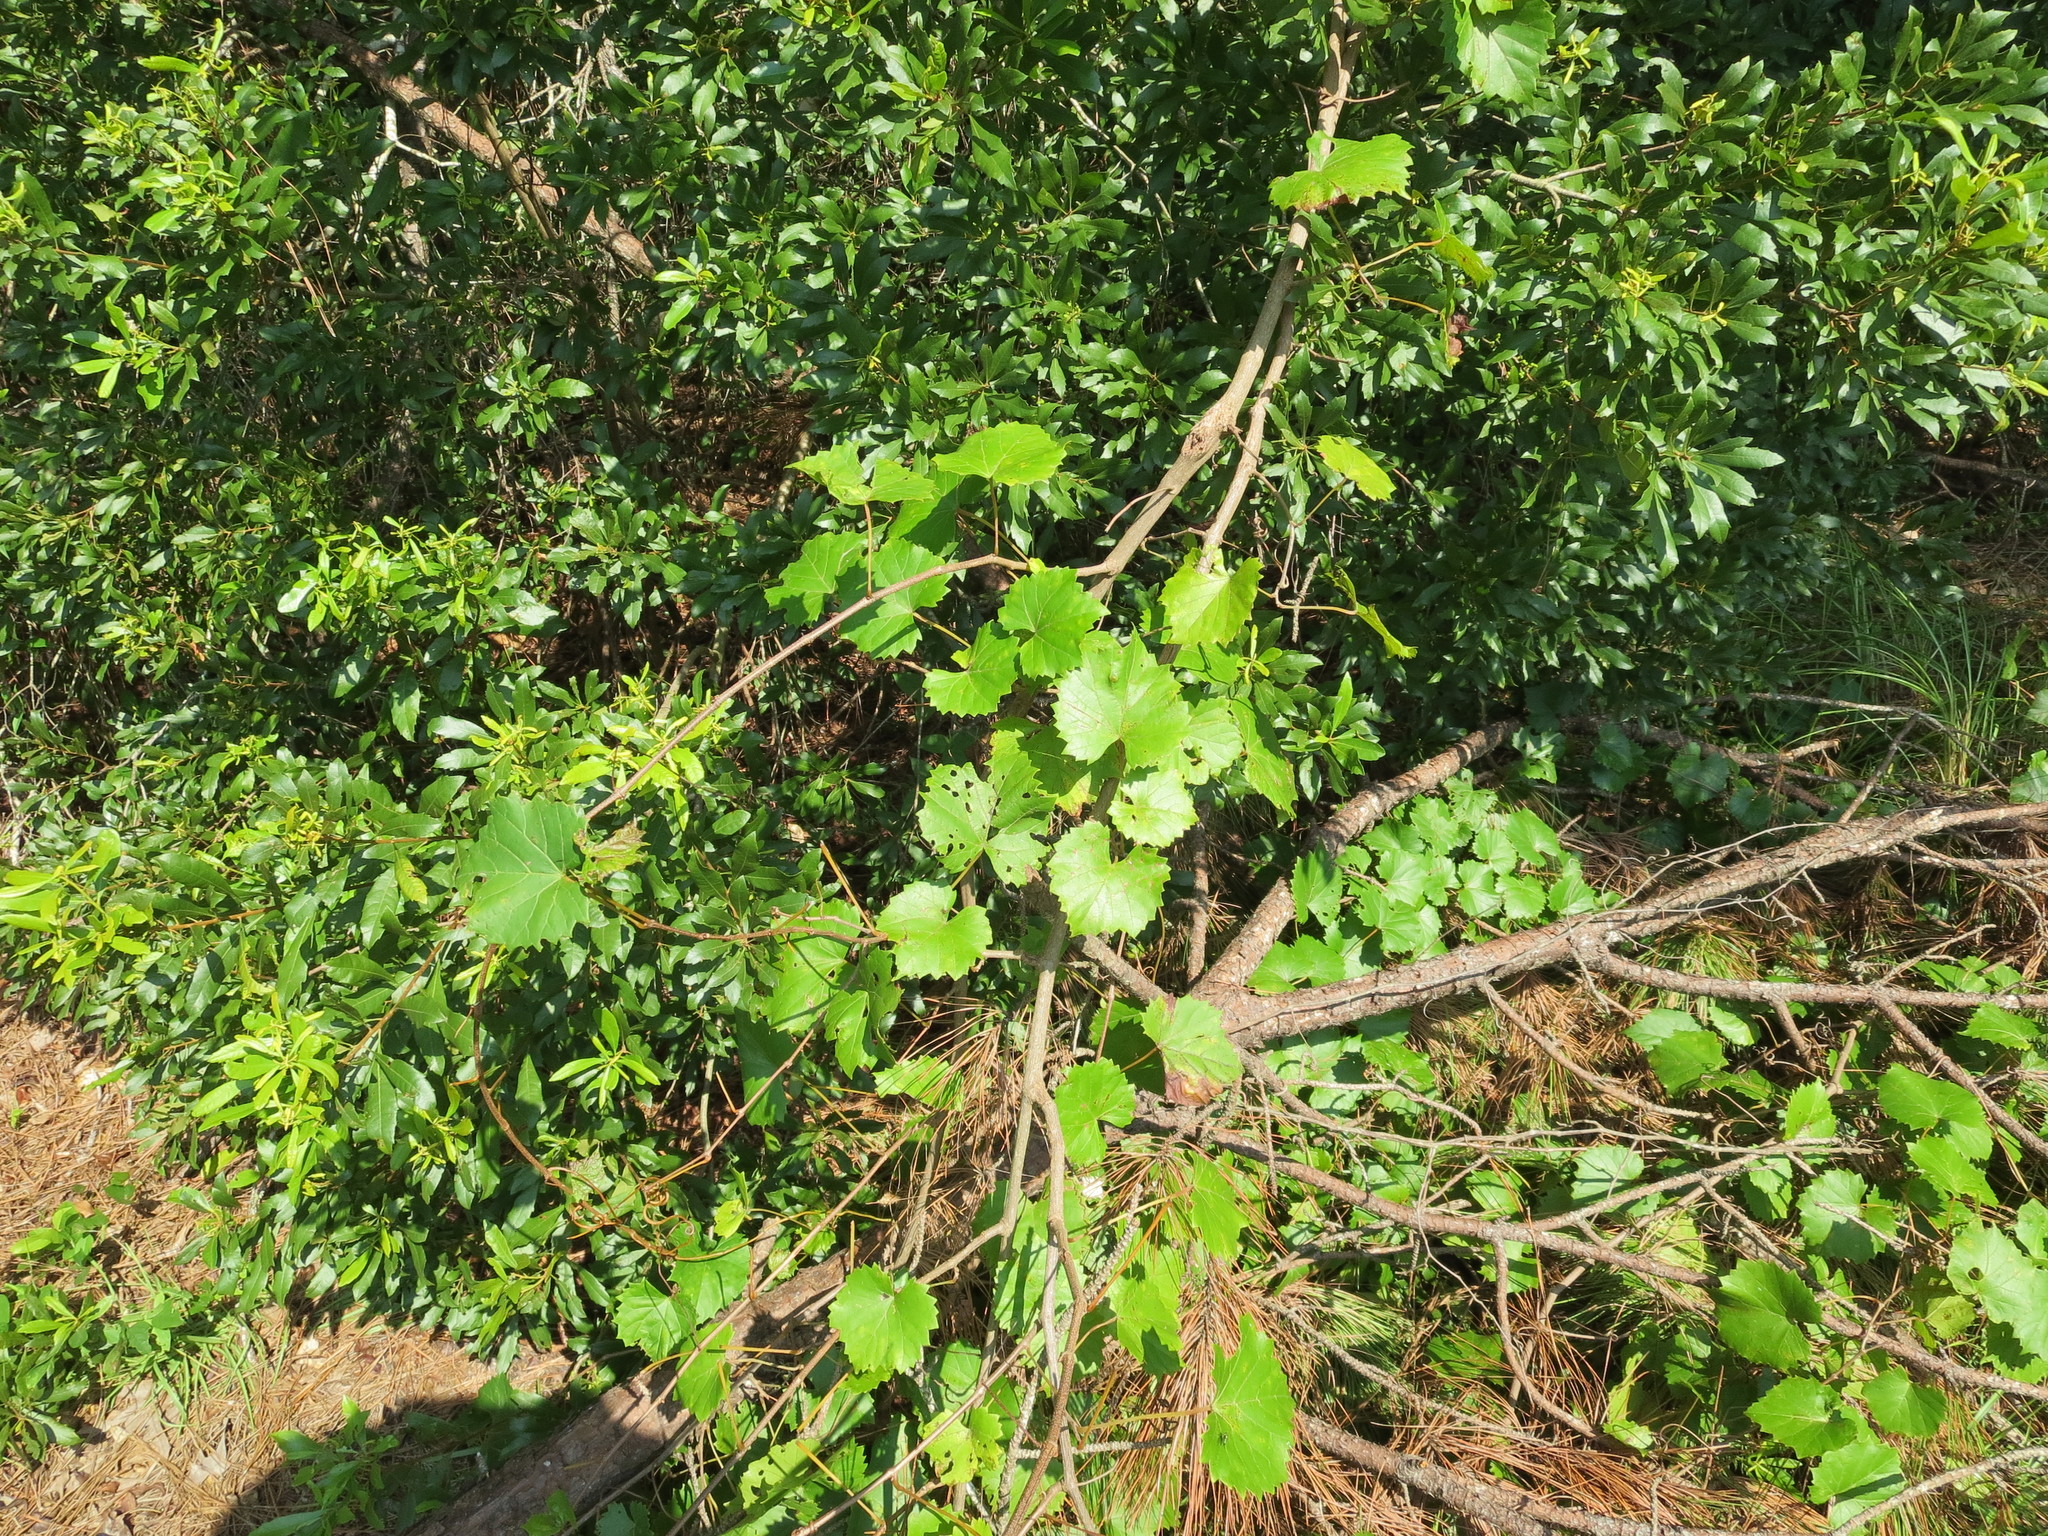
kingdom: Plantae
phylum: Tracheophyta
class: Magnoliopsida
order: Vitales
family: Vitaceae
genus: Vitis
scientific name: Vitis rotundifolia
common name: Muscadine grape
